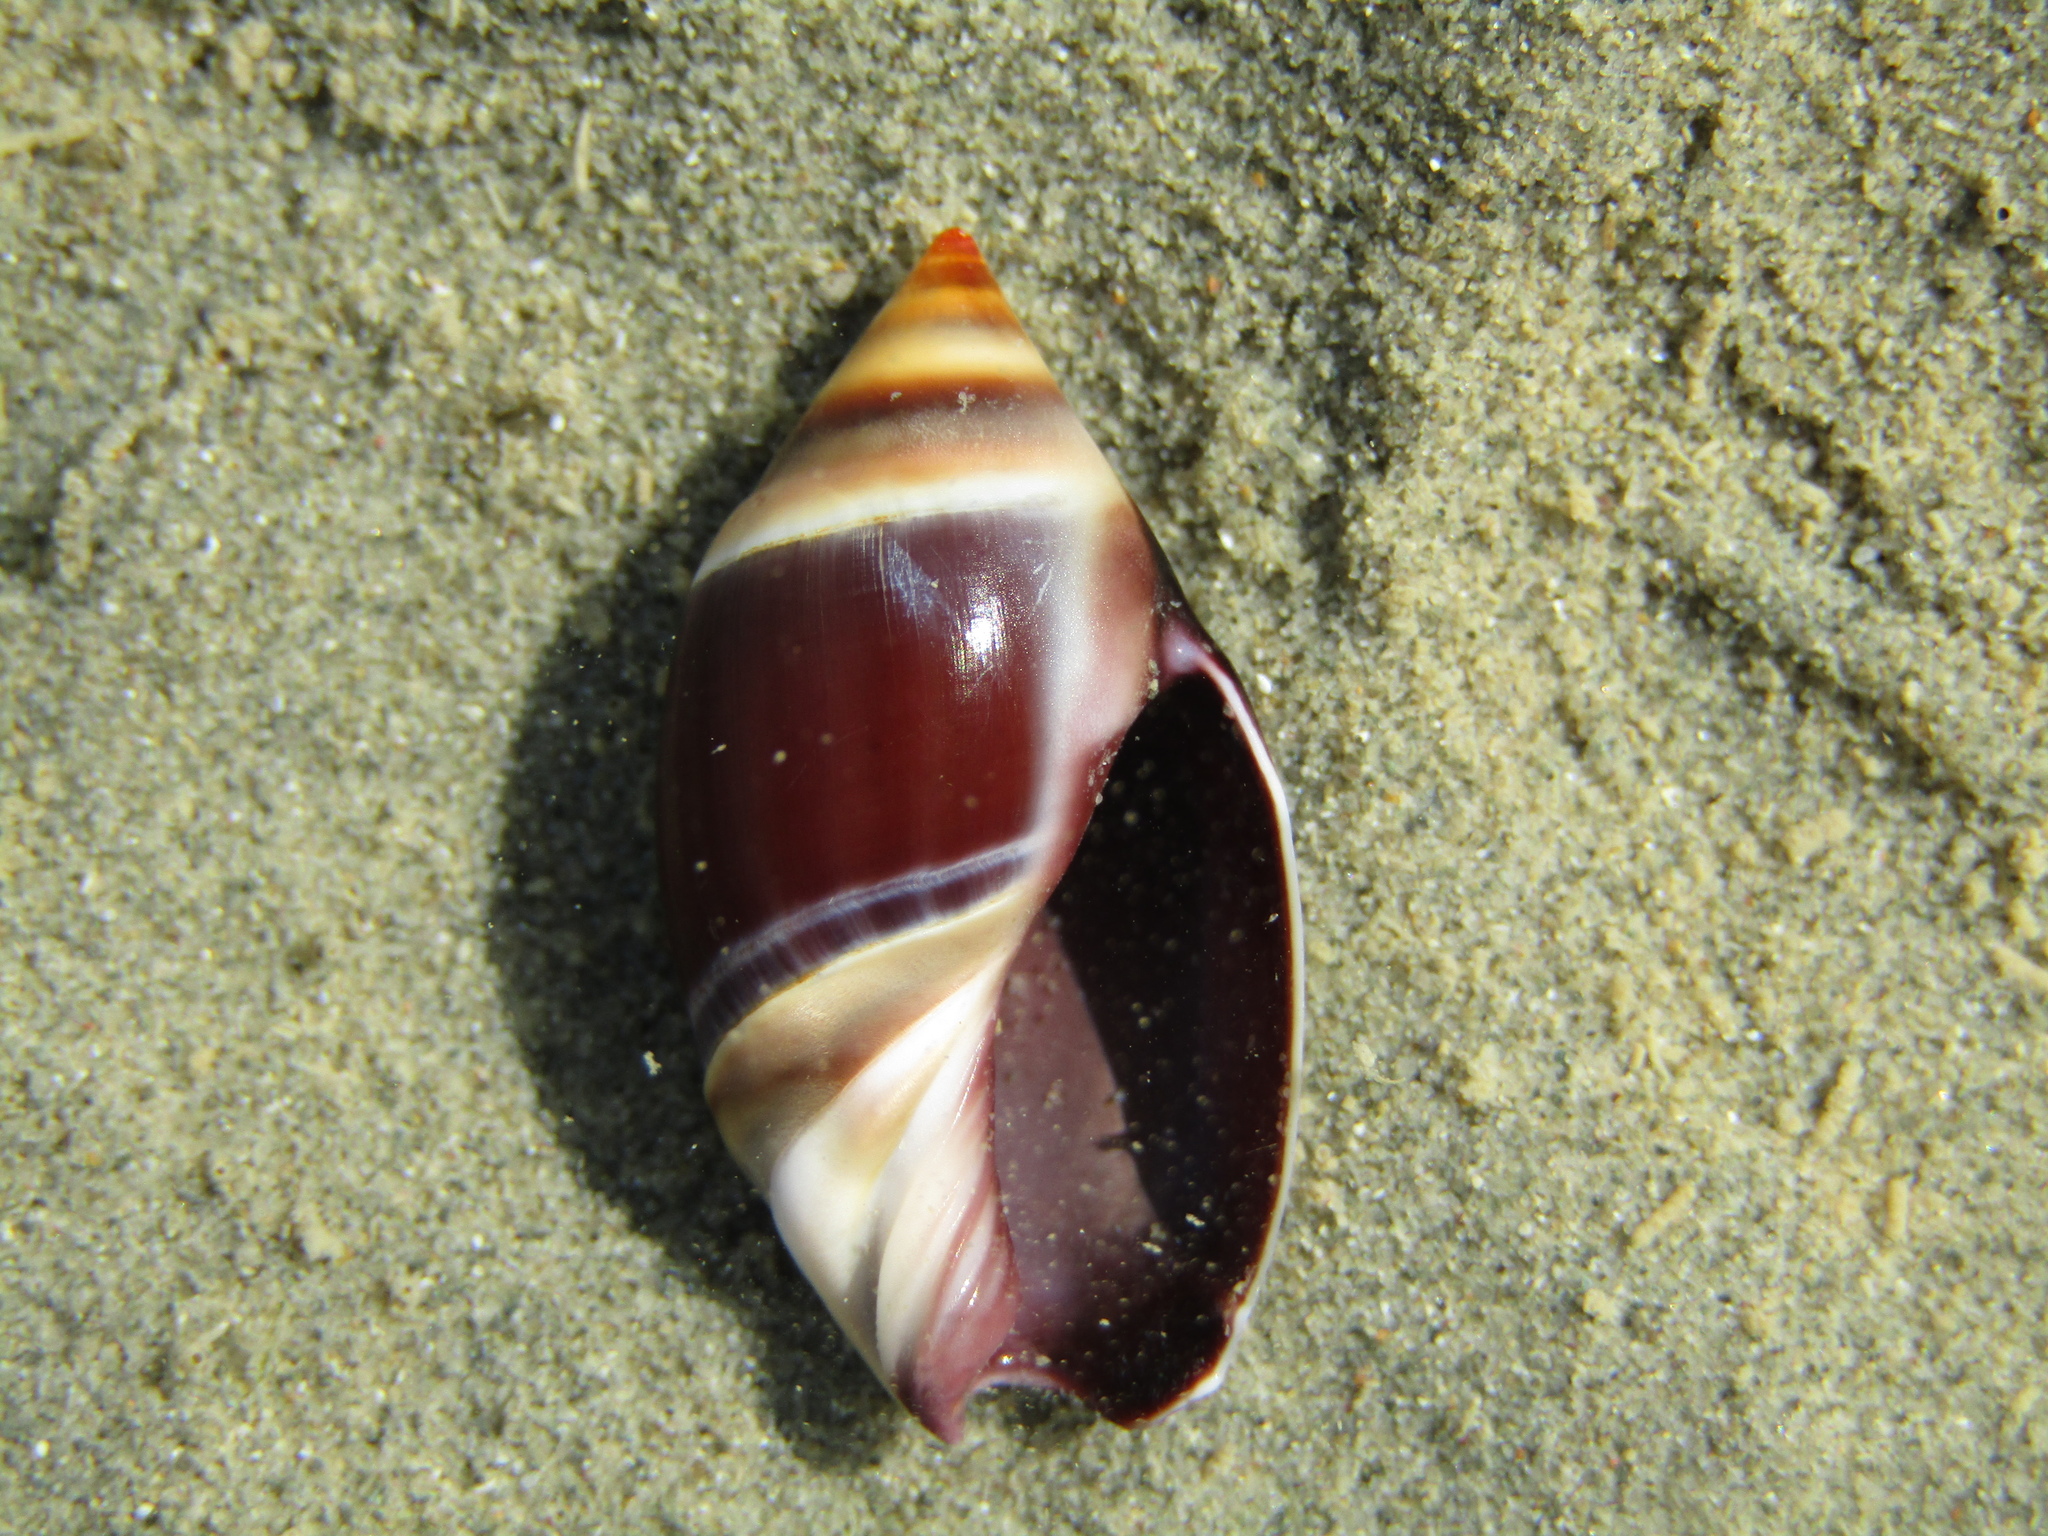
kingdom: Animalia
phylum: Mollusca
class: Gastropoda
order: Neogastropoda
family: Ancillariidae
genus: Amalda
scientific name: Amalda australis
